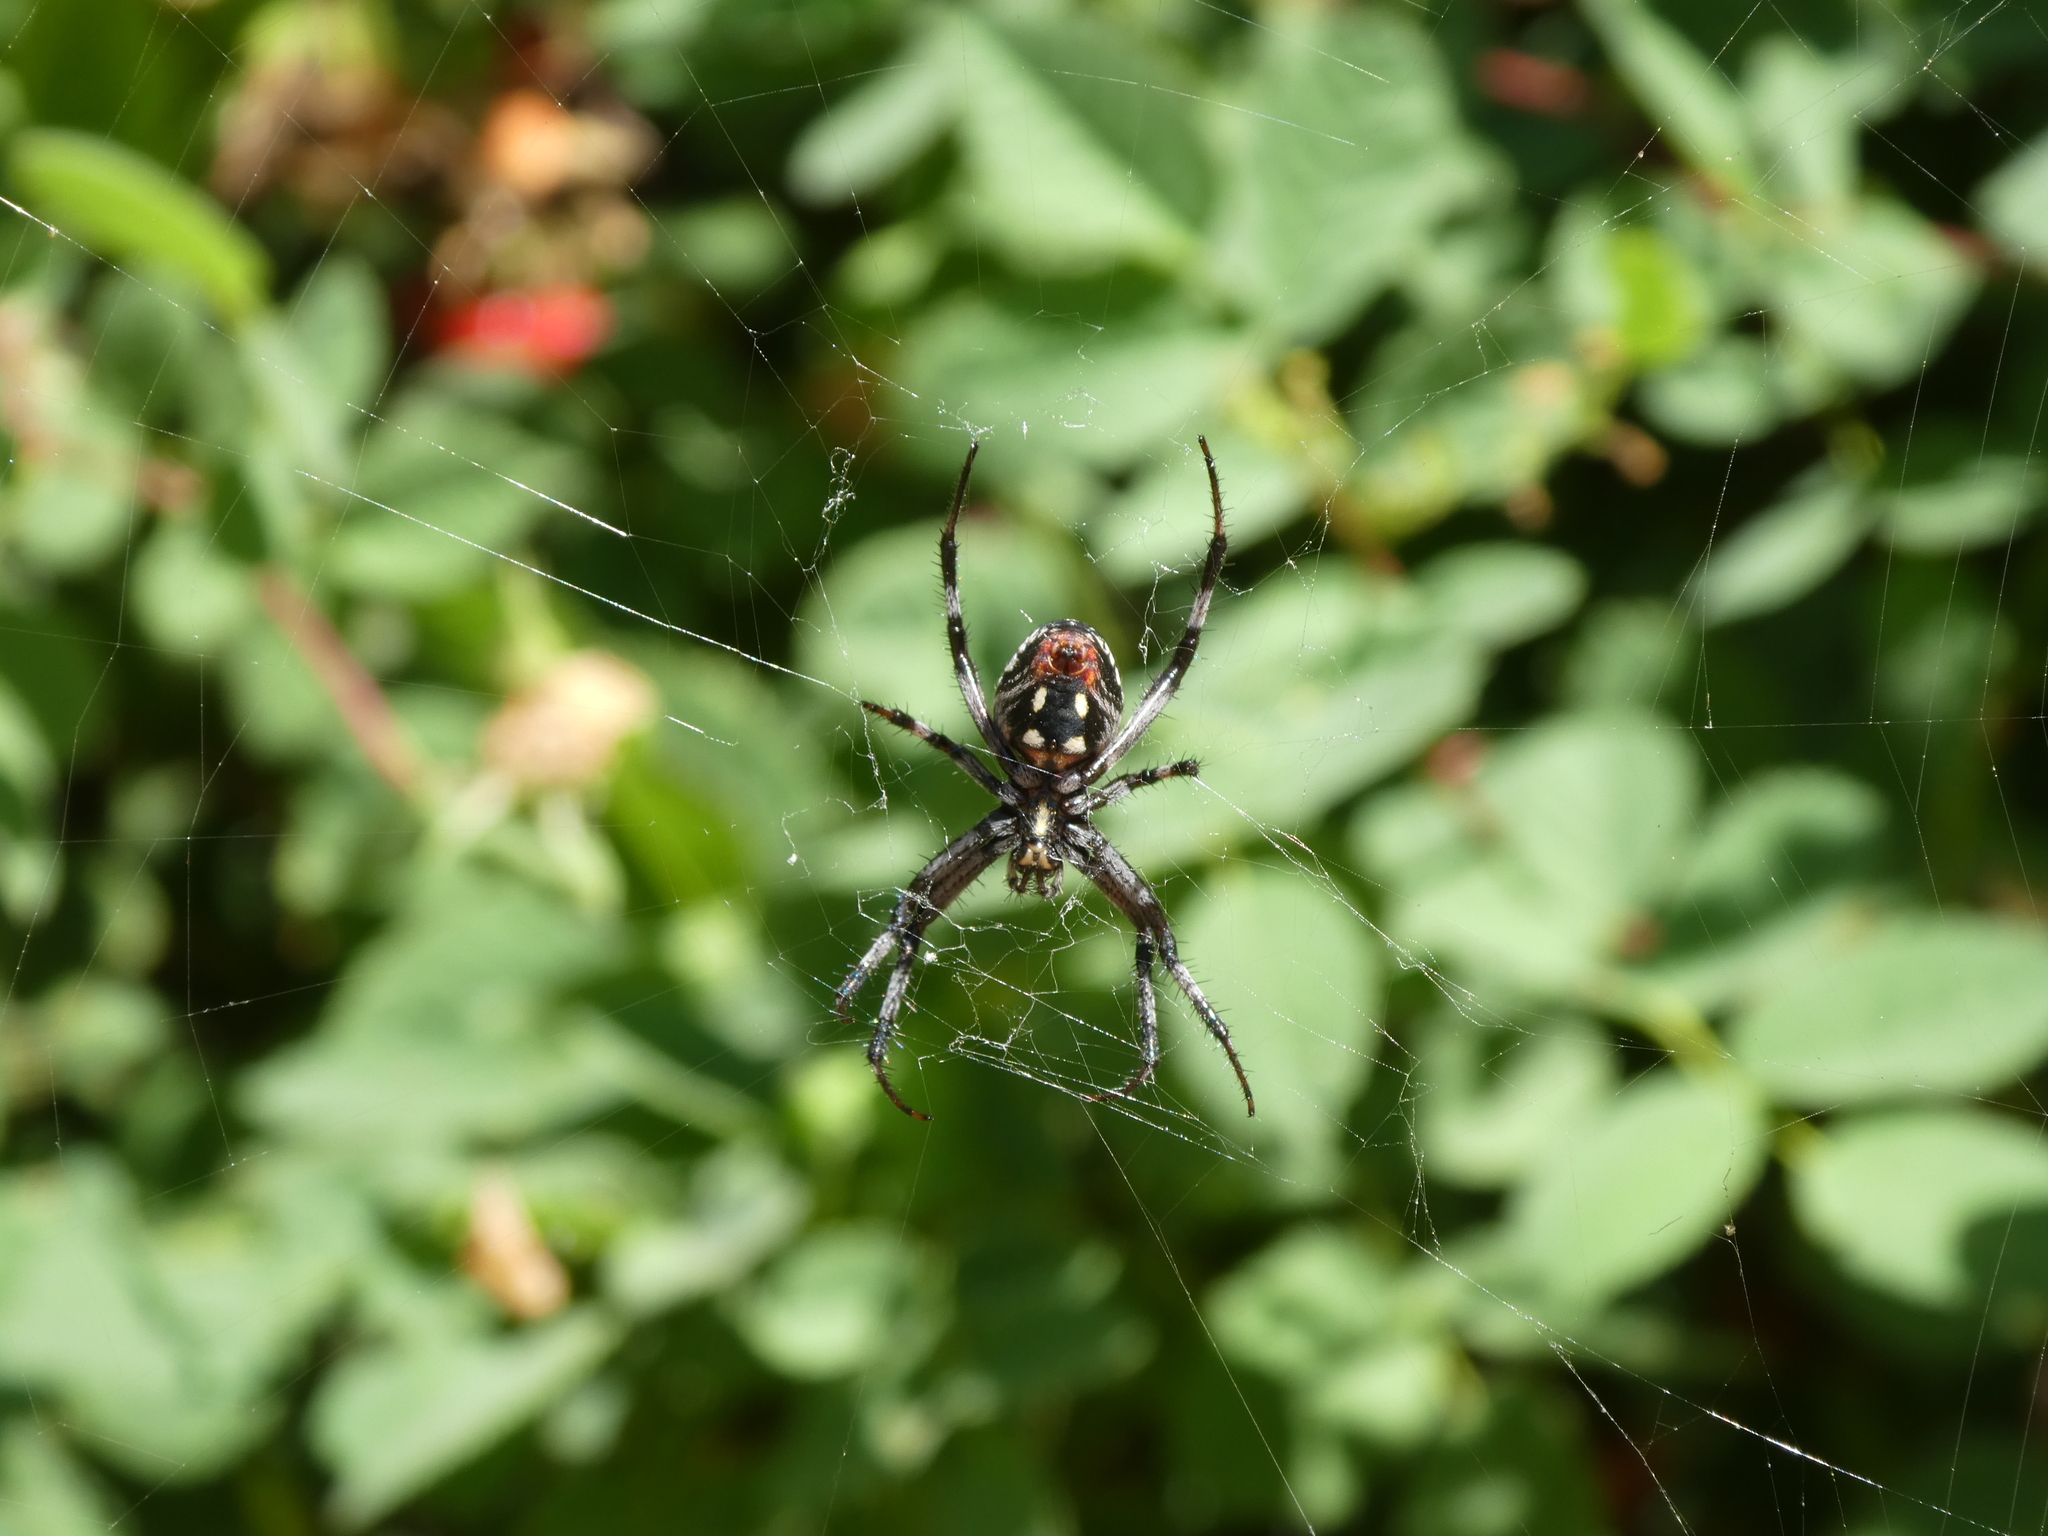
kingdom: Animalia
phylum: Arthropoda
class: Arachnida
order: Araneae
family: Araneidae
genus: Neoscona
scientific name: Neoscona oaxacensis
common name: Orb weavers
